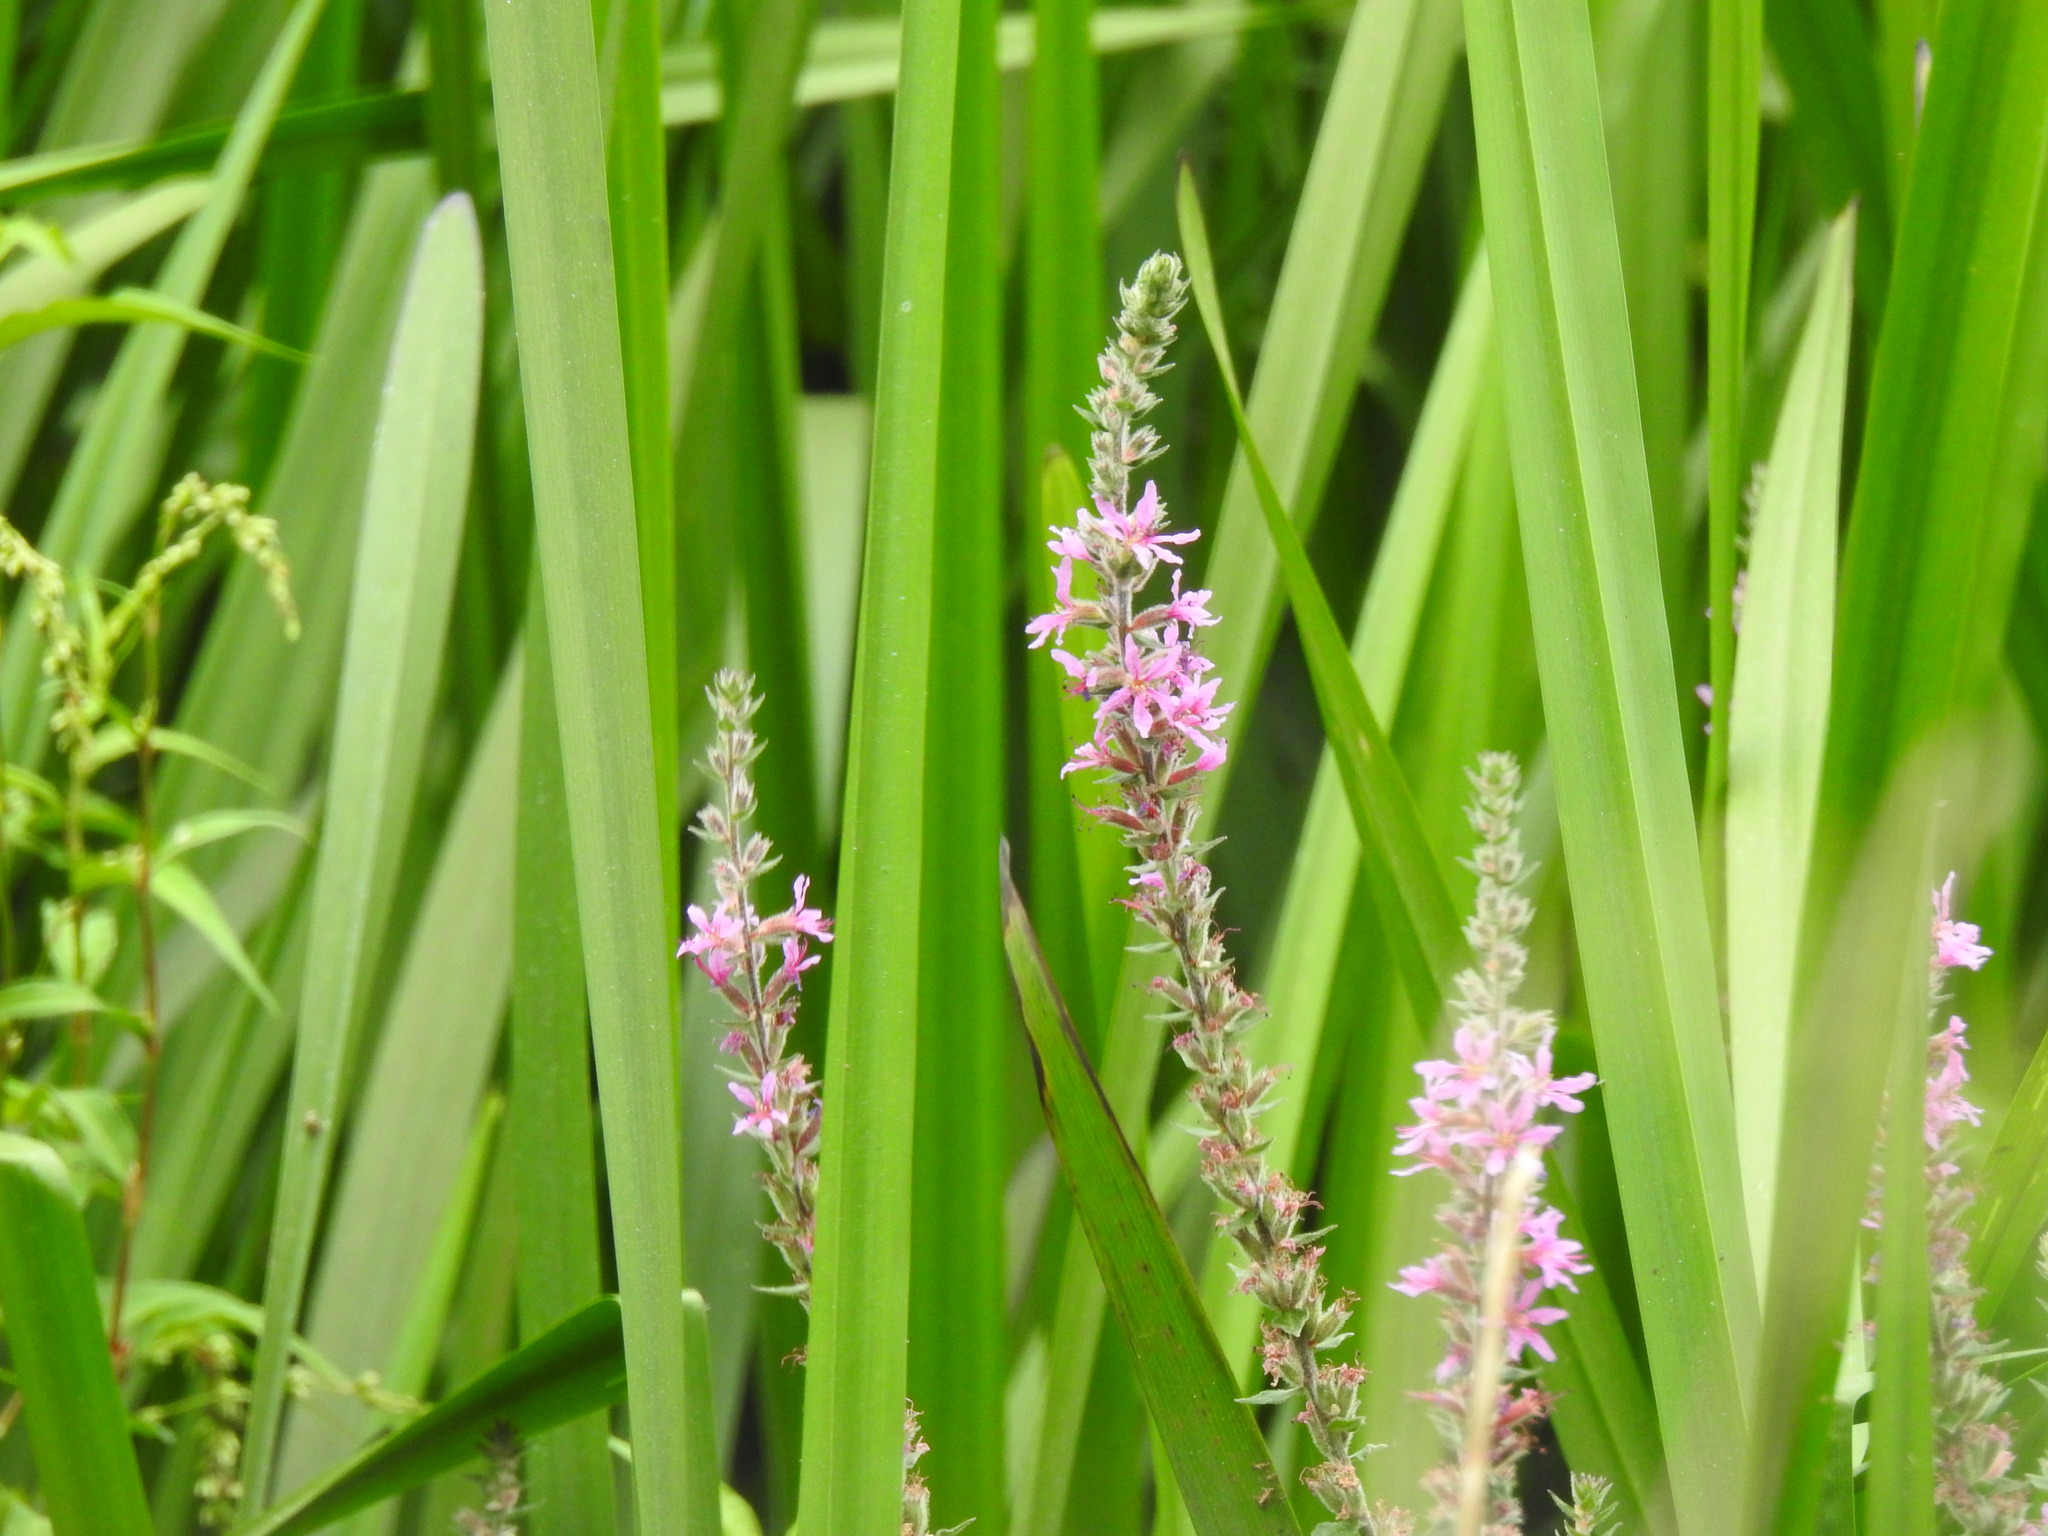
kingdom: Plantae
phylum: Tracheophyta
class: Magnoliopsida
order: Myrtales
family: Lythraceae
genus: Lythrum
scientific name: Lythrum salicaria
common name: Purple loosestrife
